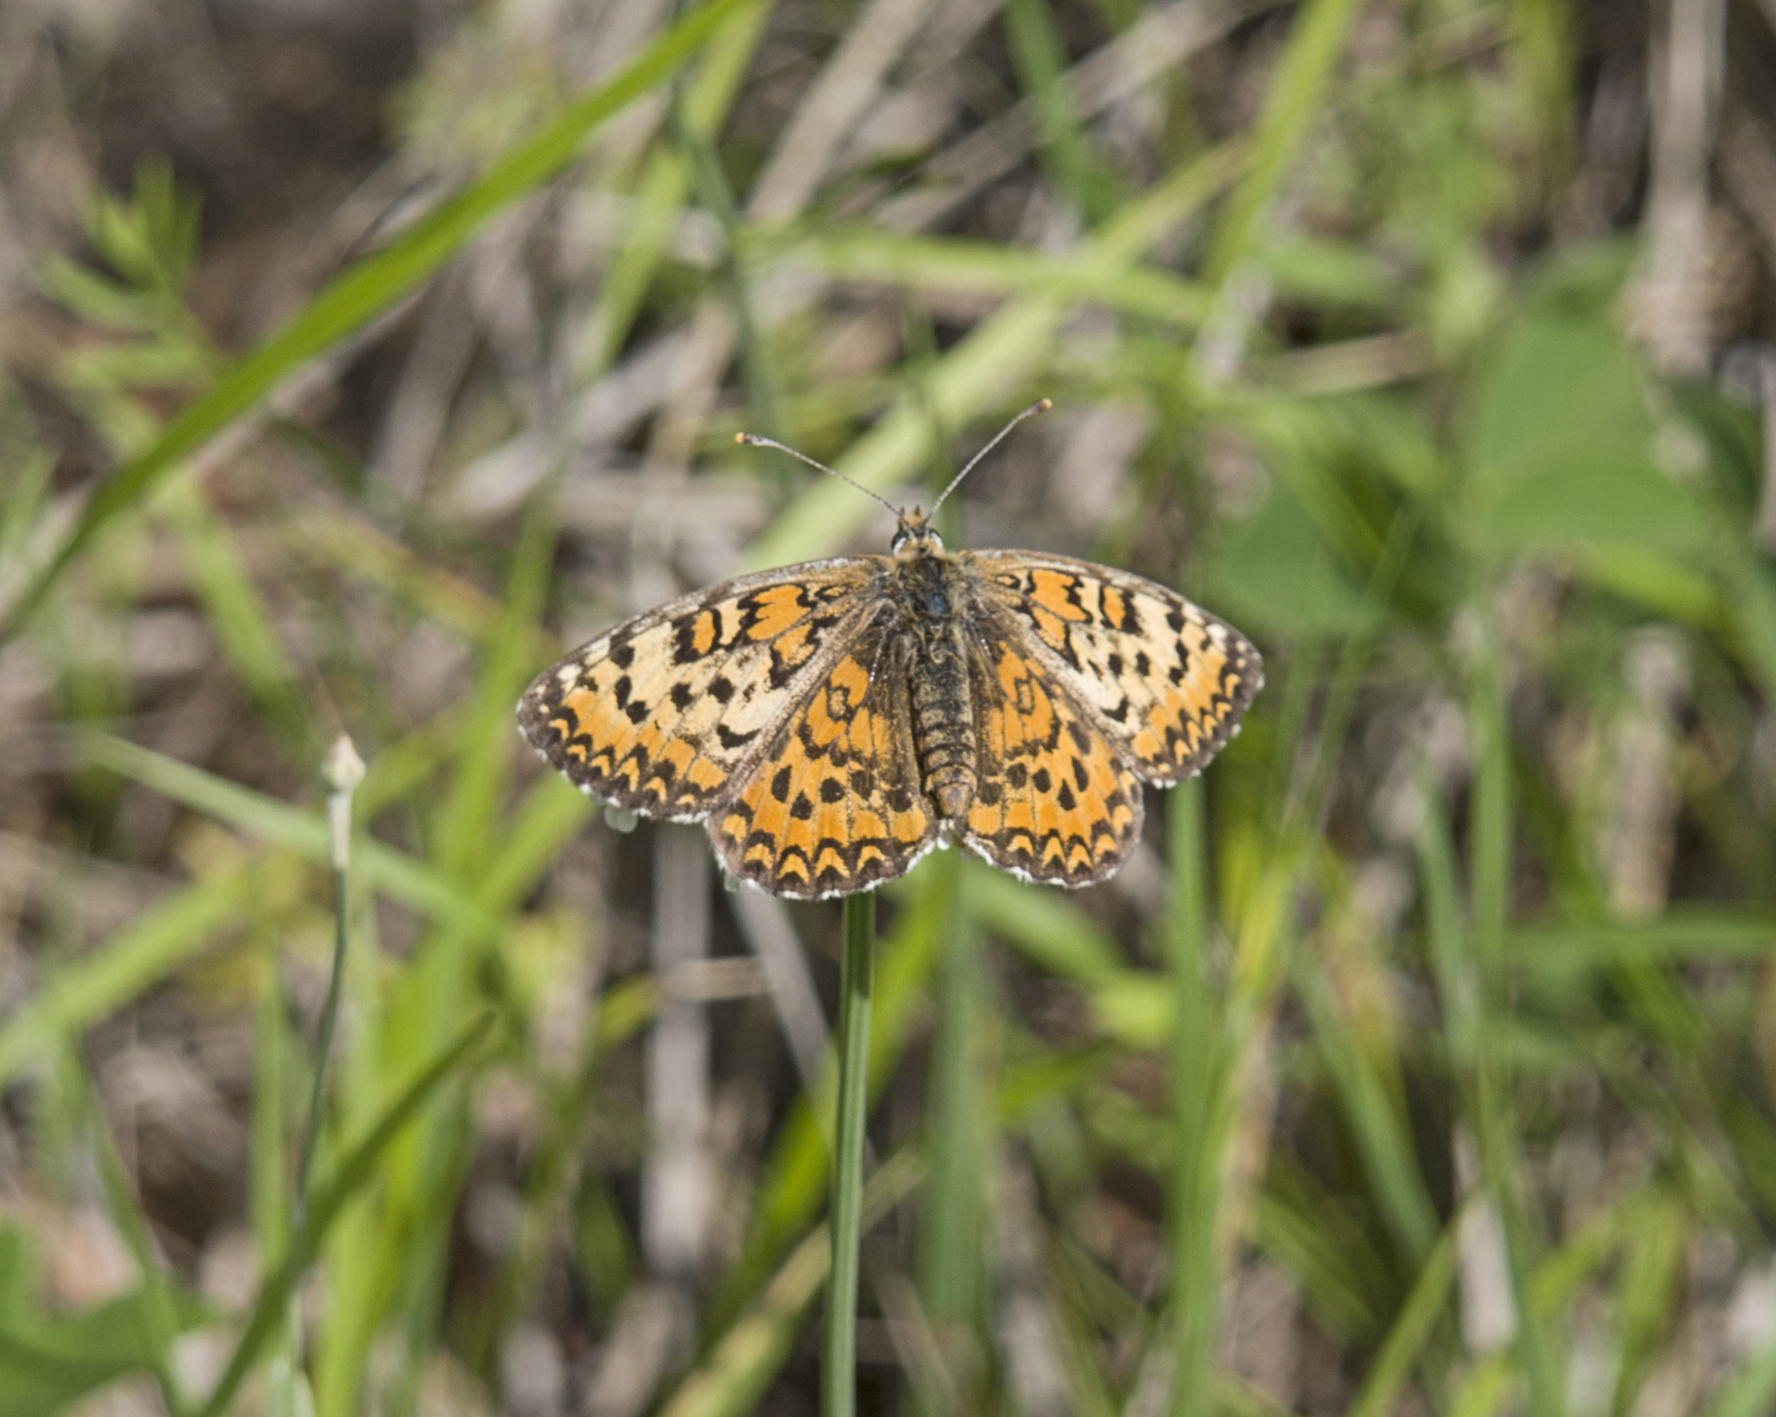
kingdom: Animalia
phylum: Arthropoda
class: Insecta
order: Lepidoptera
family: Nymphalidae
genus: Melitaea
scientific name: Melitaea trivia
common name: Lesser spotted fritillary
